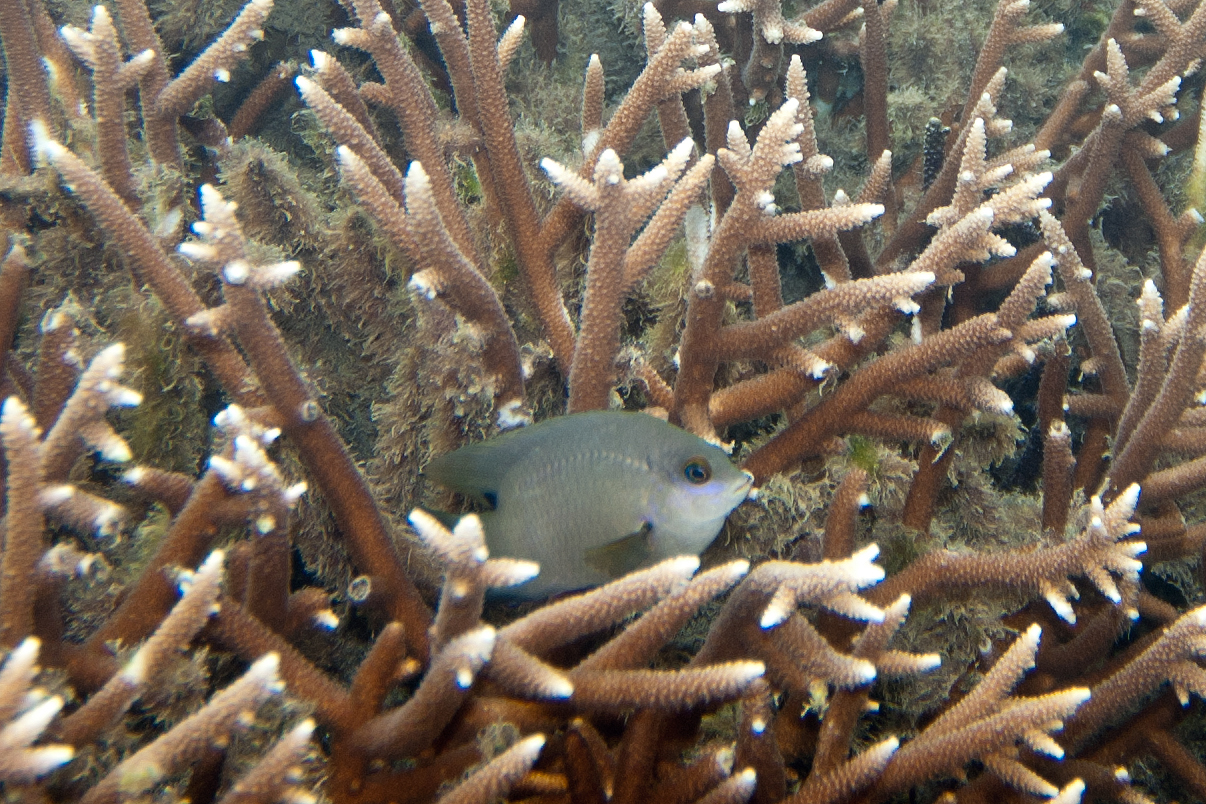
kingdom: Animalia
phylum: Chordata
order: Perciformes
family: Pomacentridae
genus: Stegastes
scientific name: Stegastes nigricans
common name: Dusky gregory
